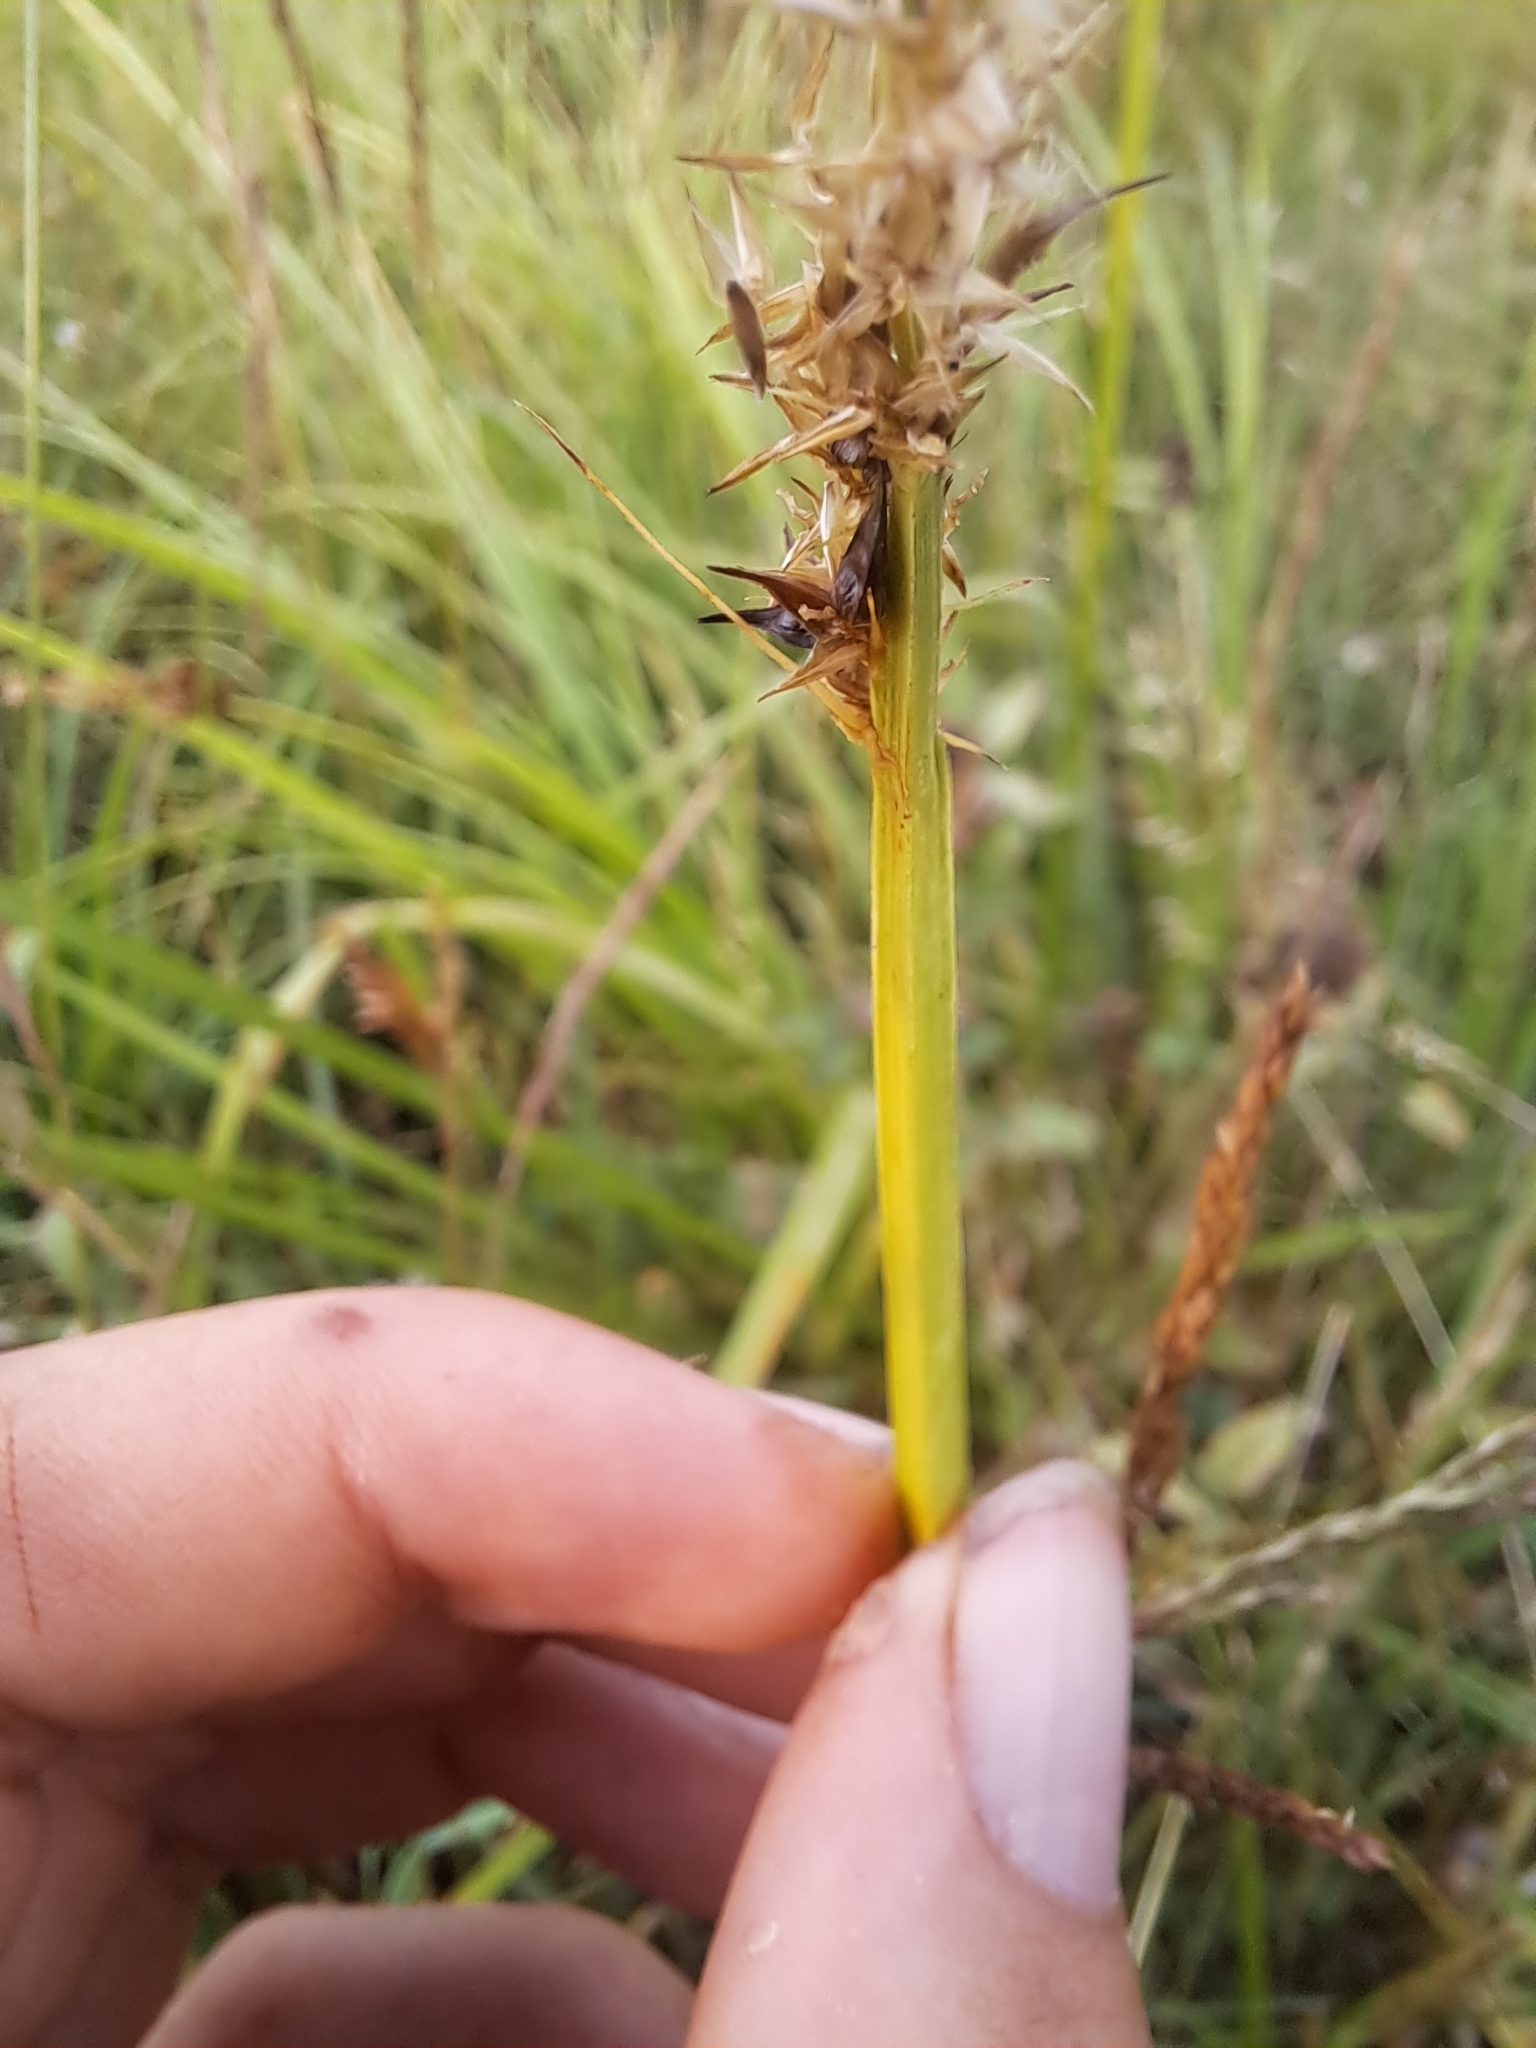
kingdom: Plantae
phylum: Tracheophyta
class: Liliopsida
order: Poales
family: Cyperaceae
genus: Carex
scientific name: Carex stipata
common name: Awl-fruited sedge
